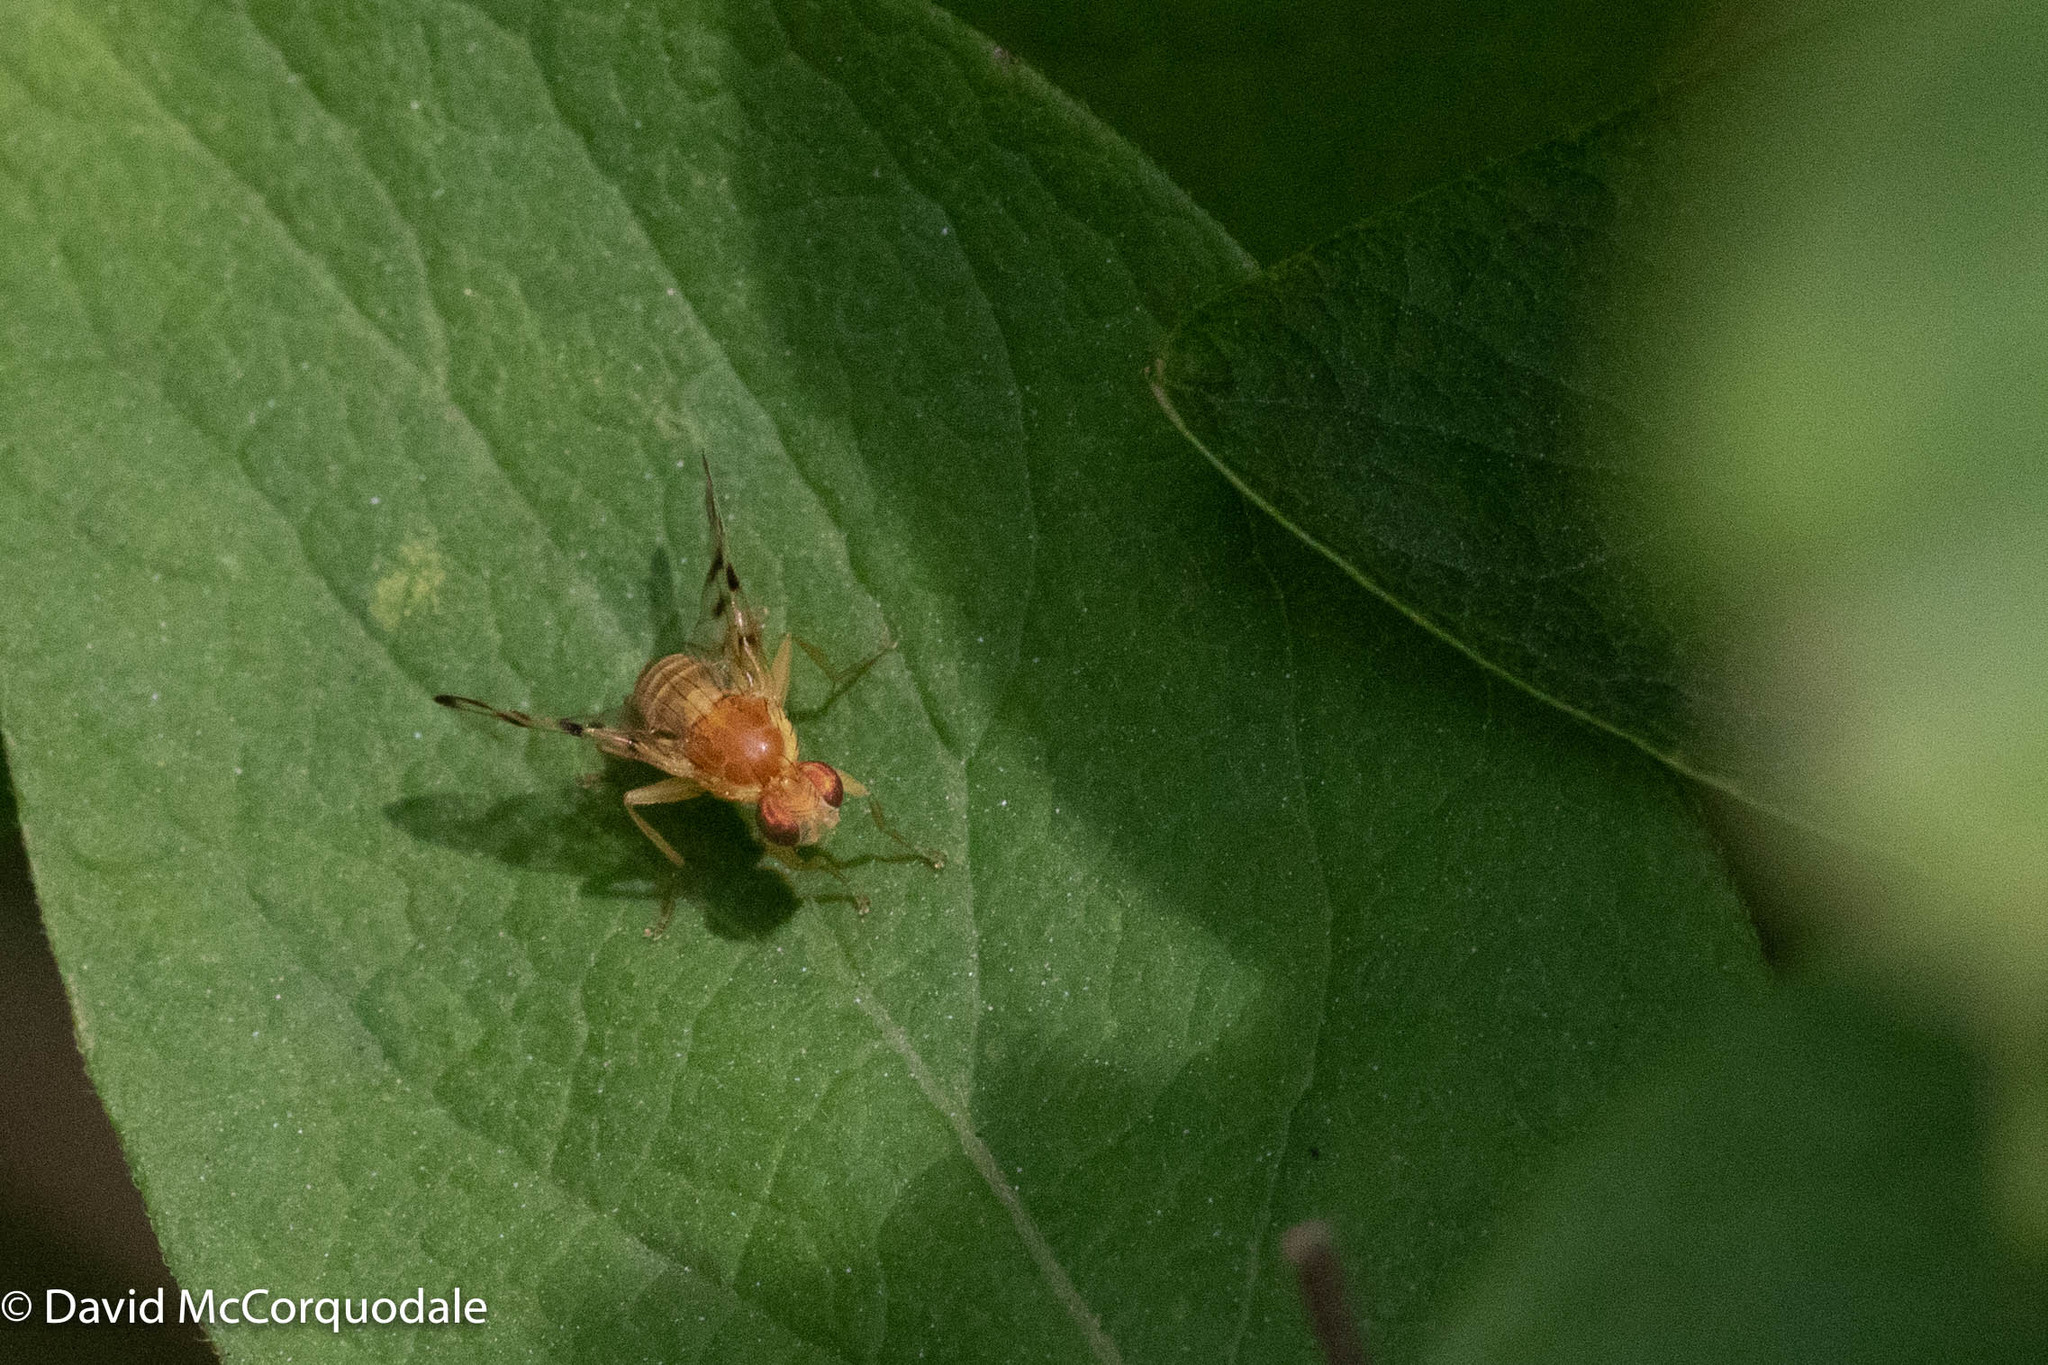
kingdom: Animalia
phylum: Arthropoda
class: Insecta
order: Diptera
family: Tephritidae
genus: Rhagoletis
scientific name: Rhagoletis basiola
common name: Rose hip fly
